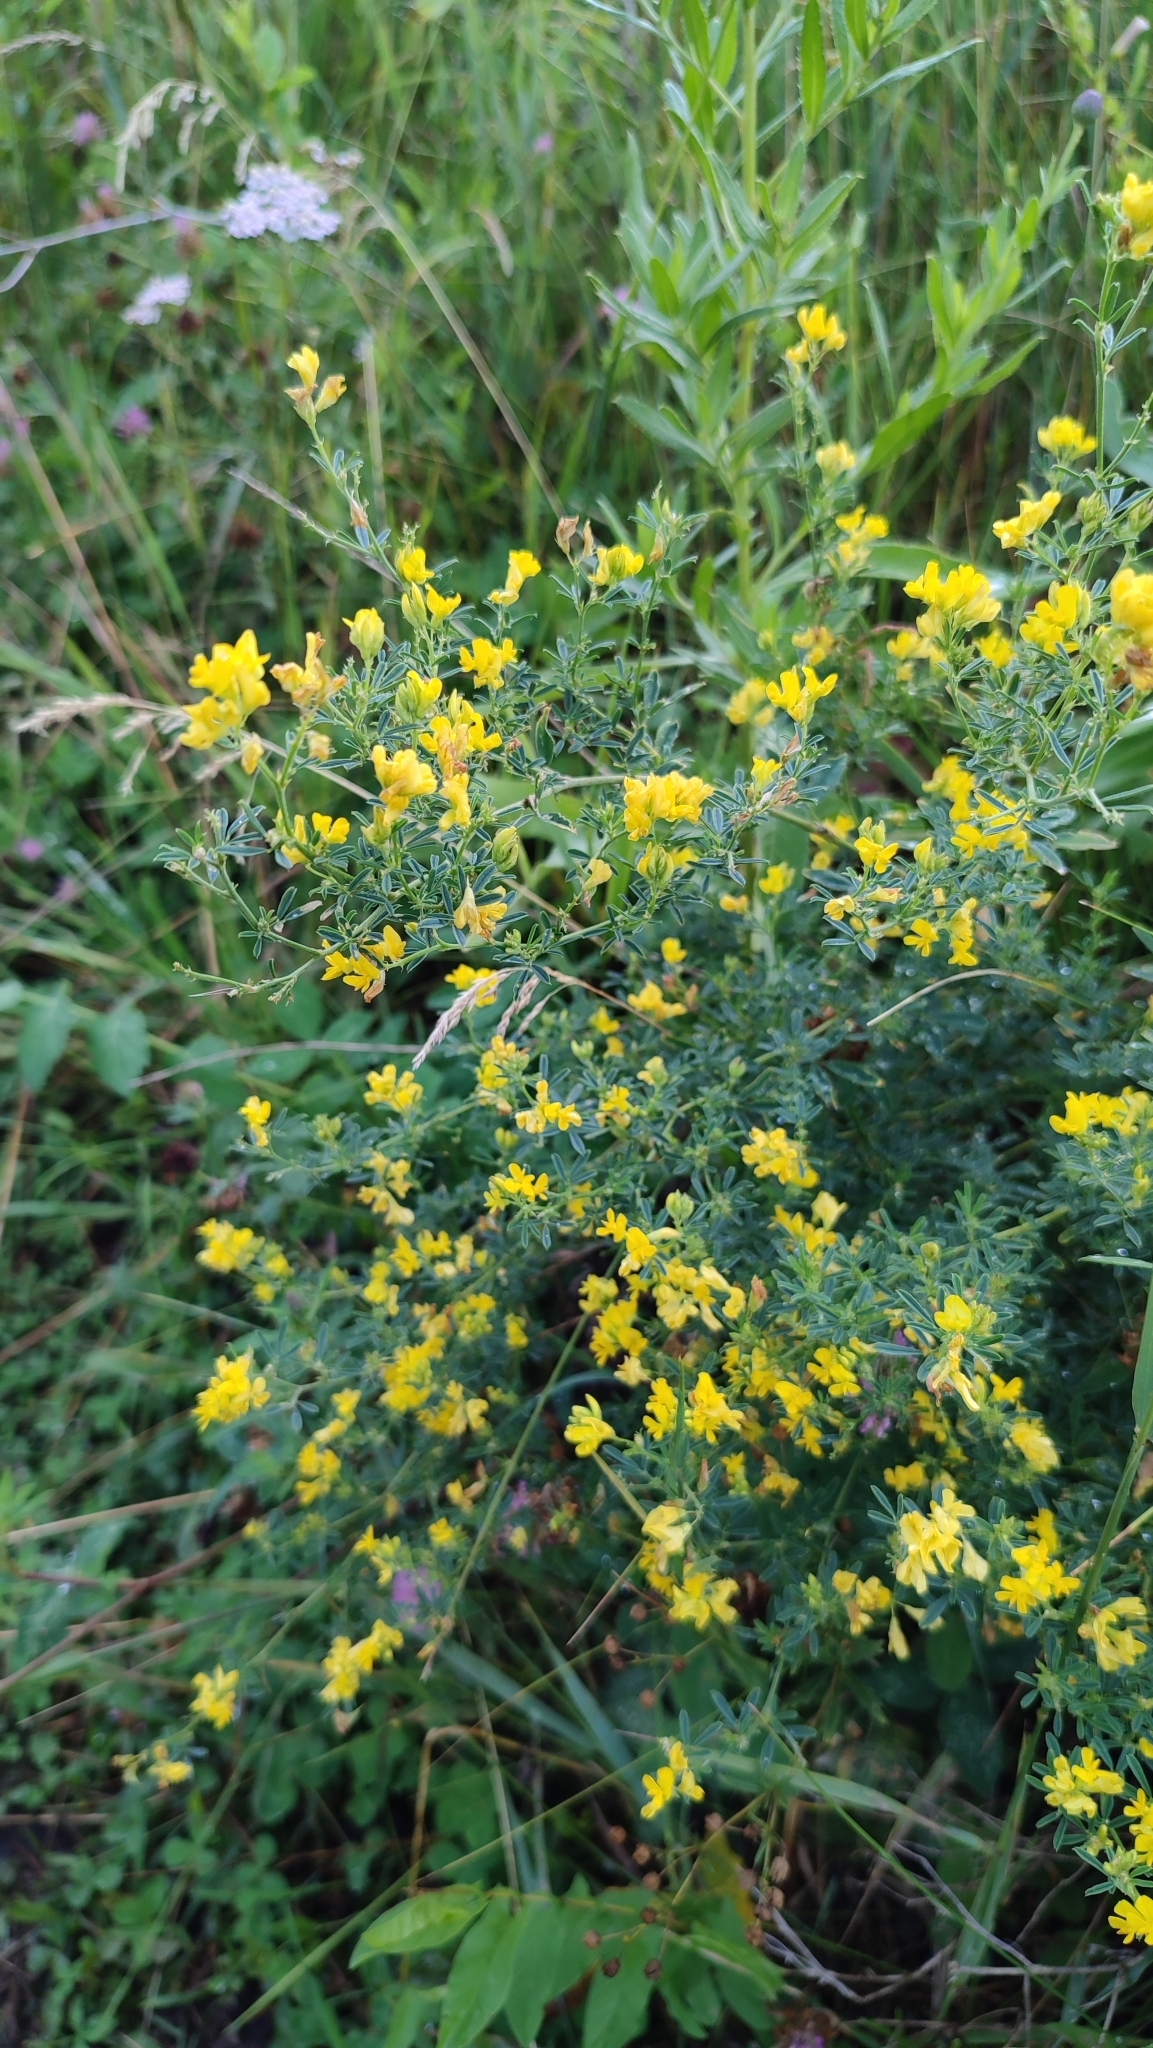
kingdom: Plantae
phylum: Tracheophyta
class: Magnoliopsida
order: Fabales
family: Fabaceae
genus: Medicago
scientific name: Medicago falcata
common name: Sickle medick
